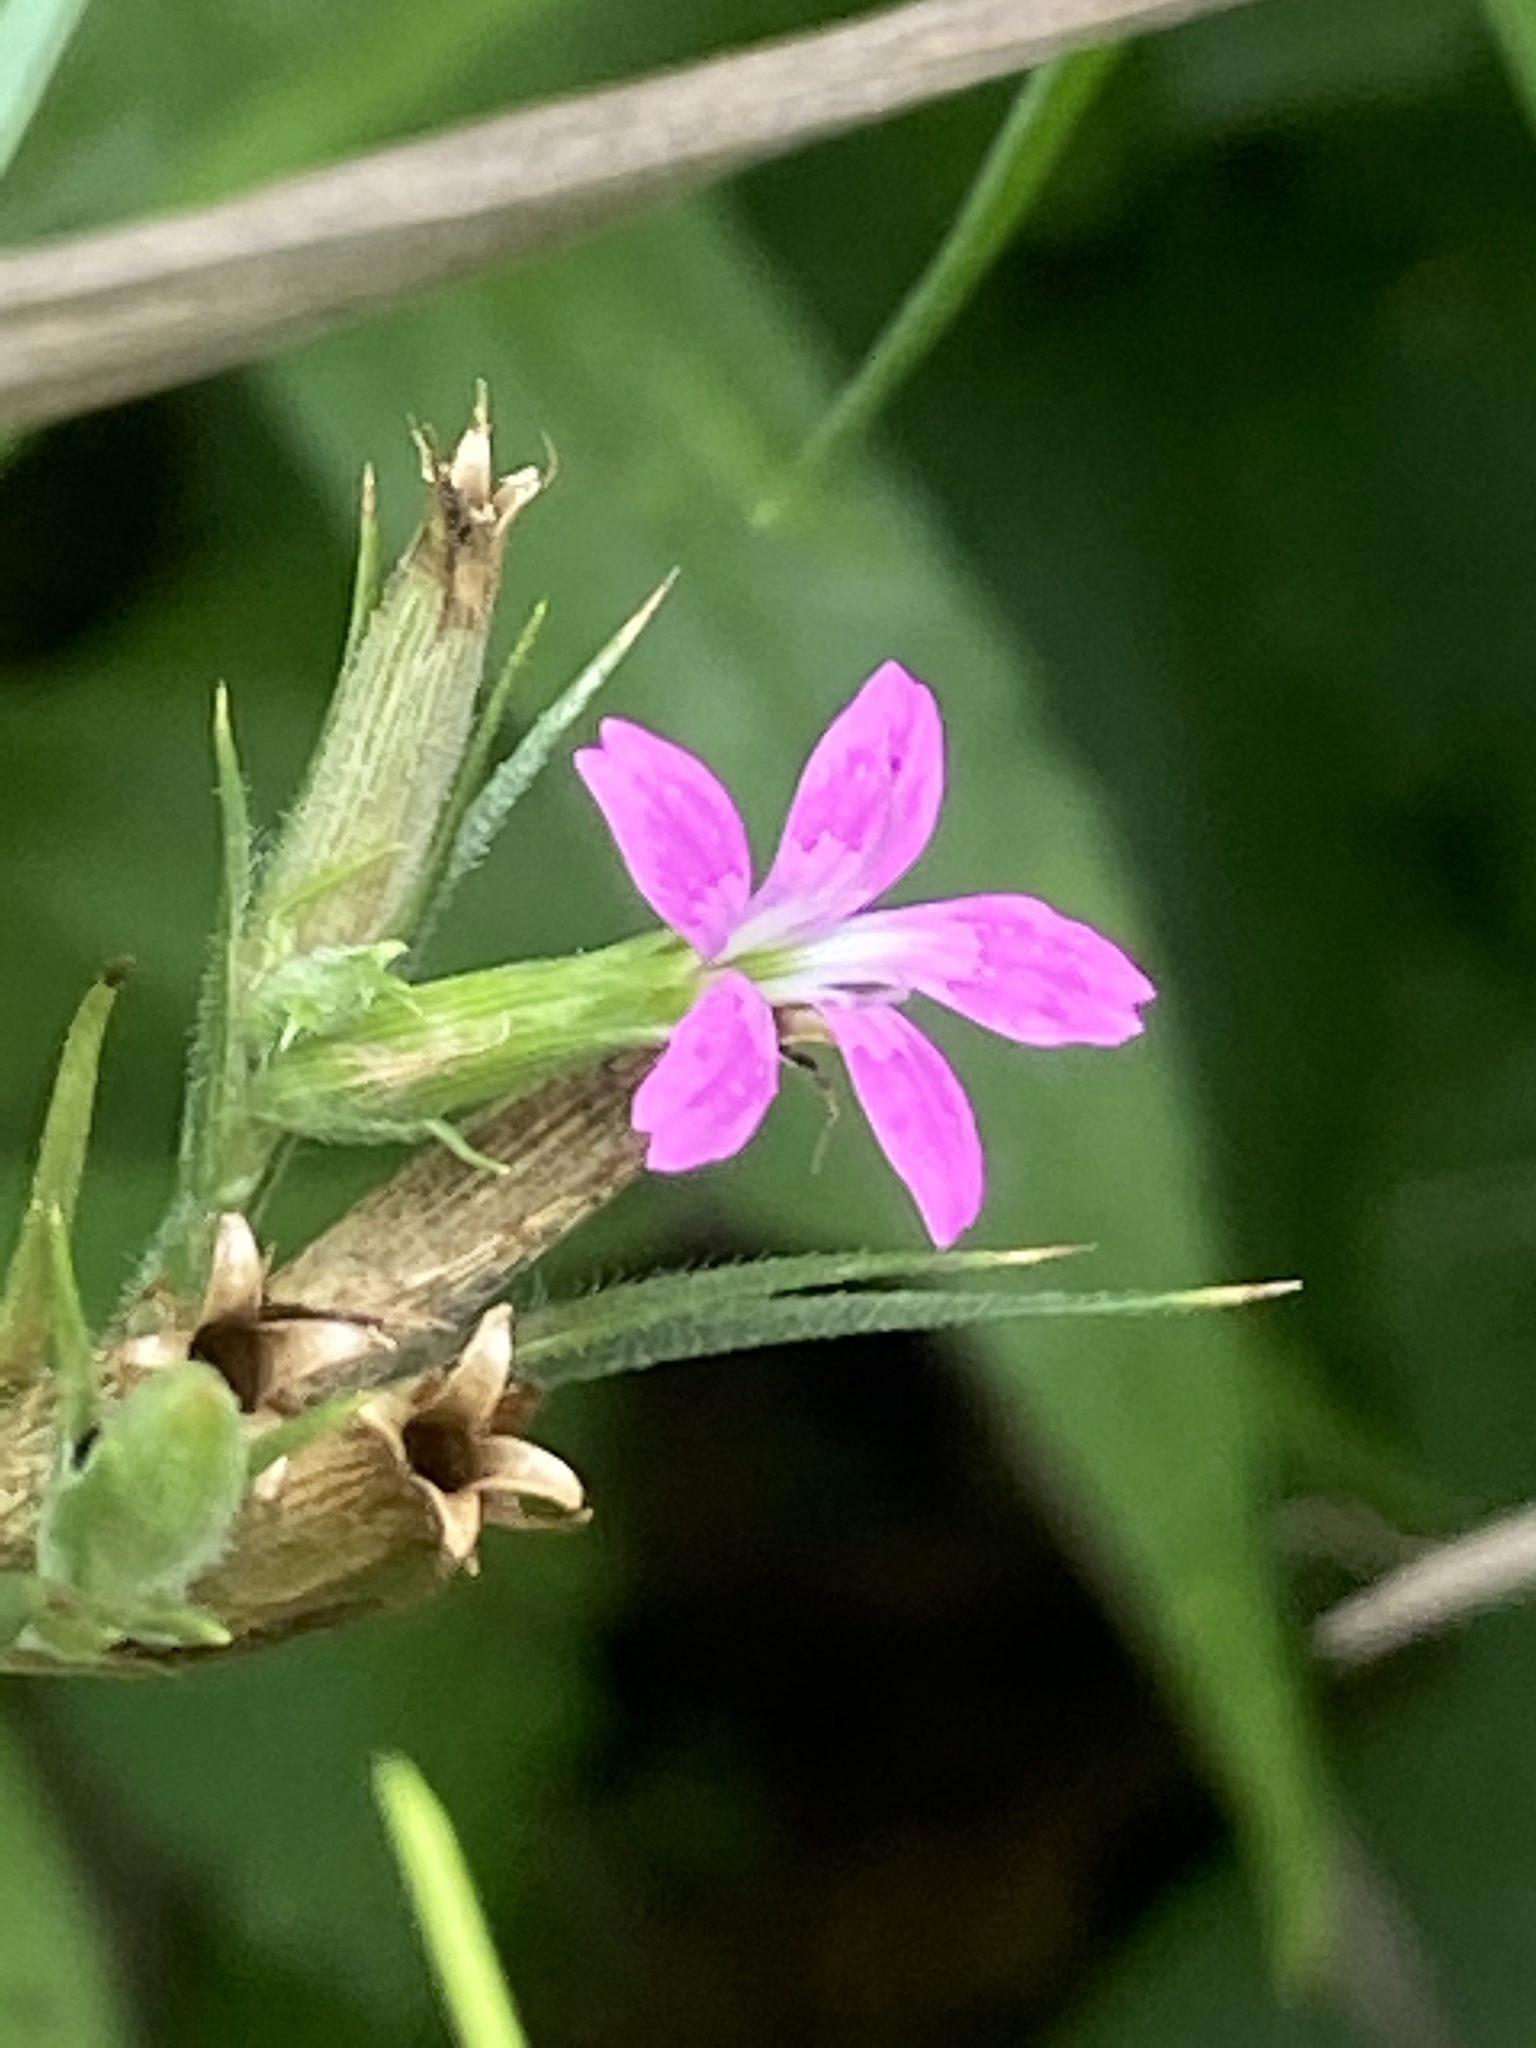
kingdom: Plantae
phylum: Tracheophyta
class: Magnoliopsida
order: Caryophyllales
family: Caryophyllaceae
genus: Dianthus
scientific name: Dianthus armeria
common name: Deptford pink
